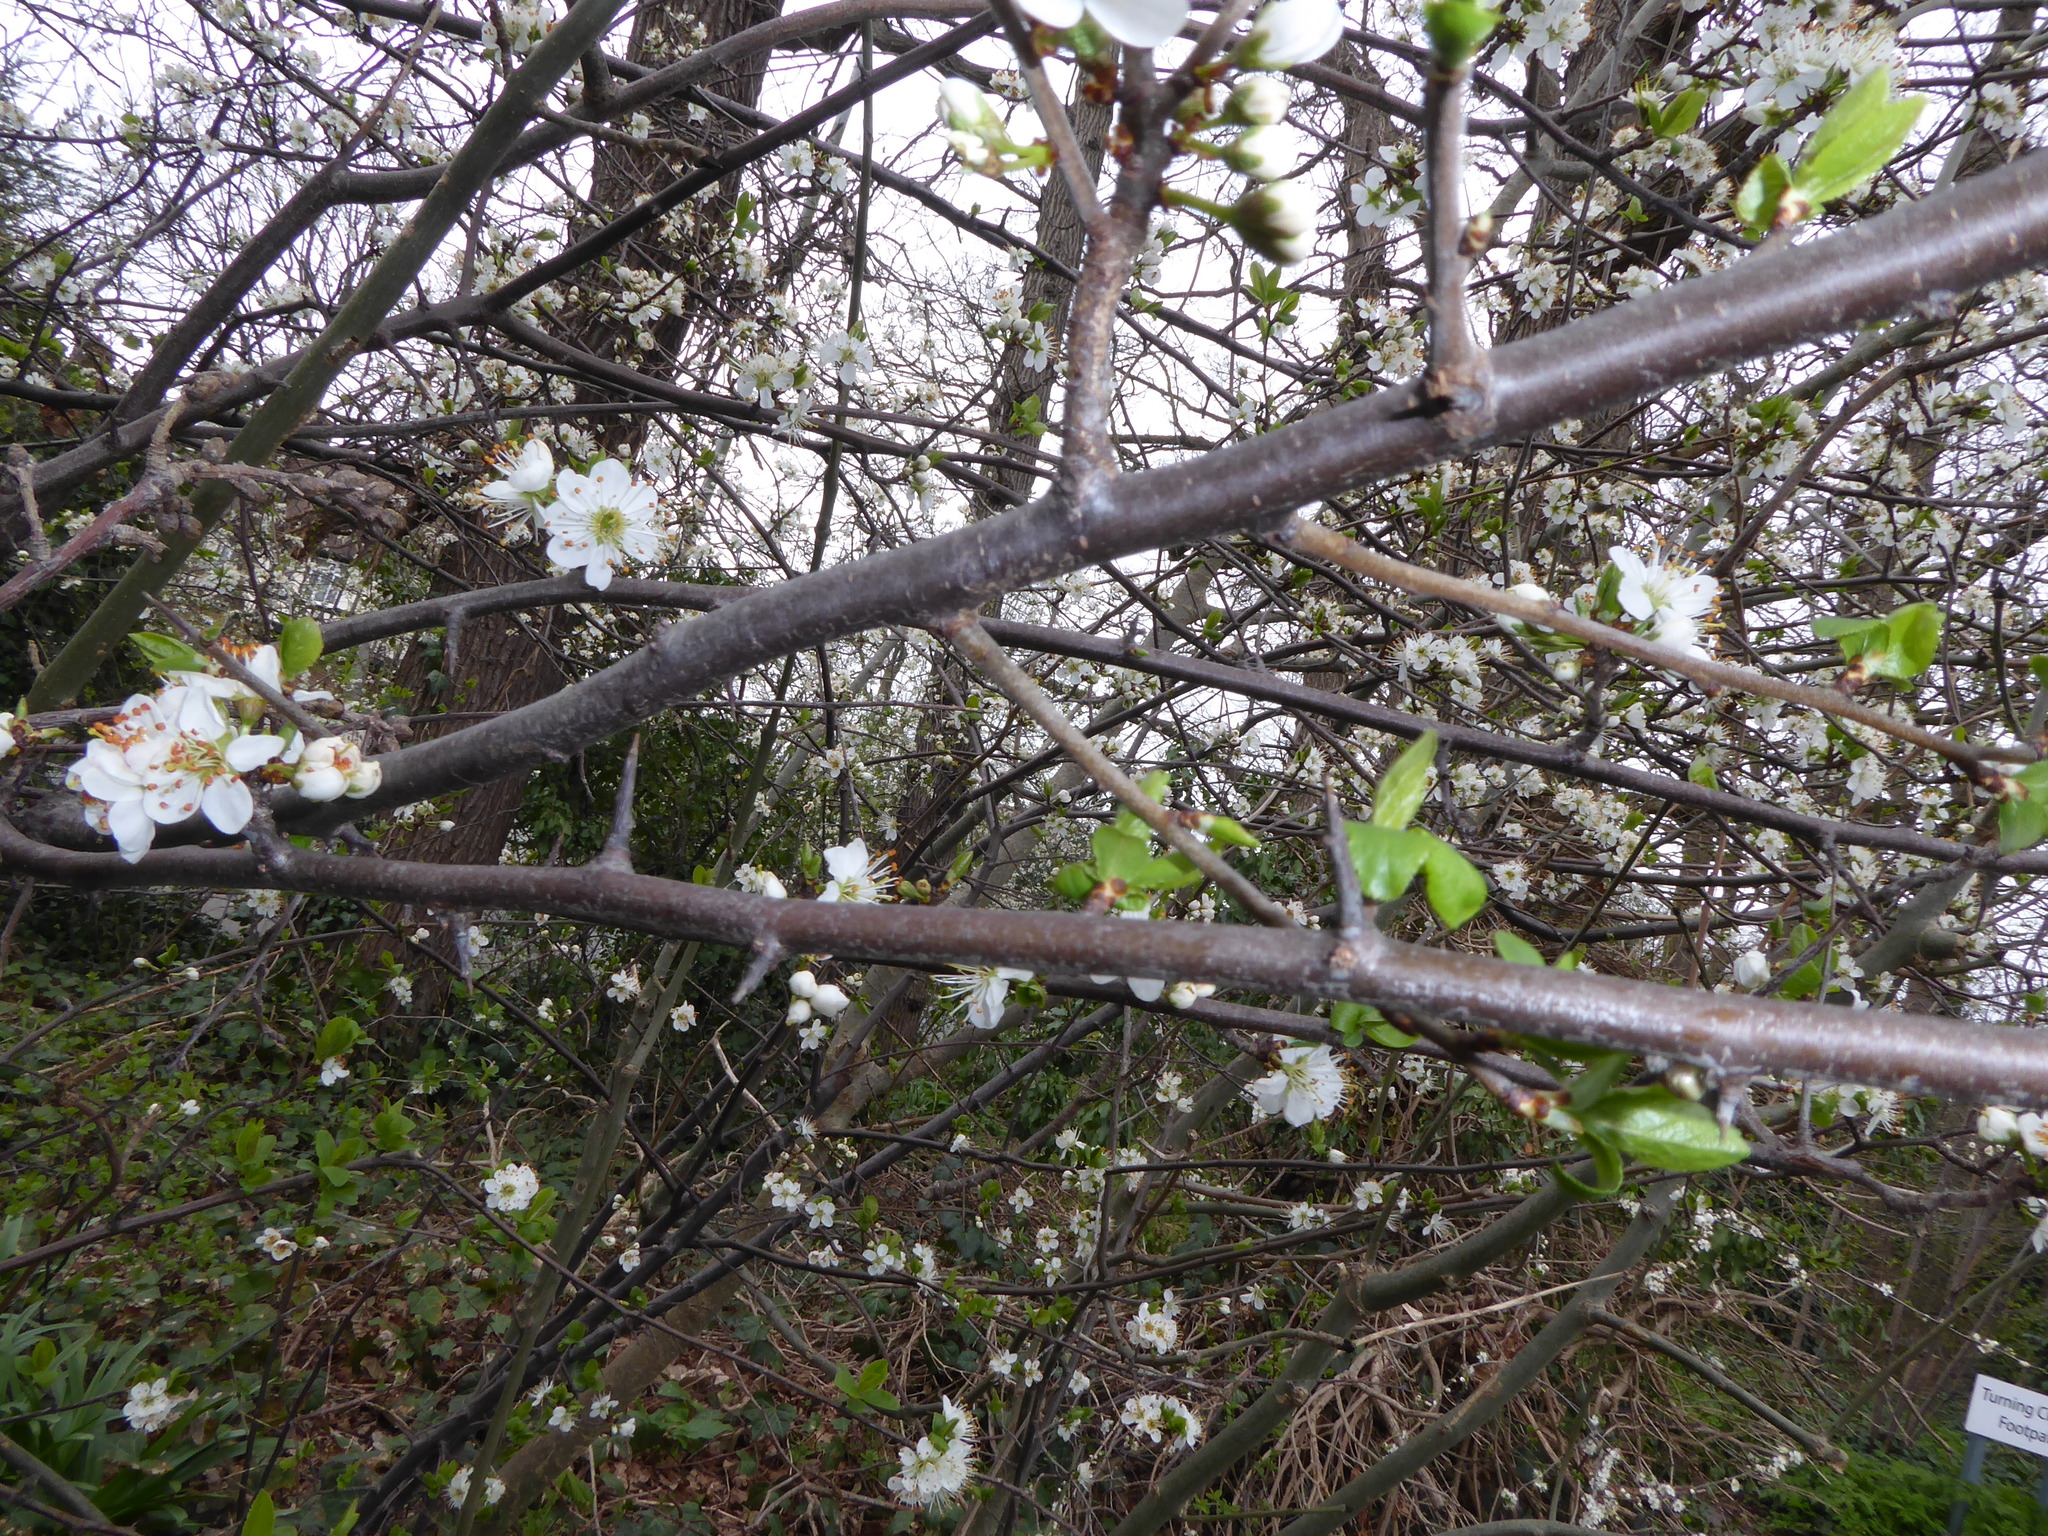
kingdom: Plantae
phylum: Tracheophyta
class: Magnoliopsida
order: Rosales
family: Rosaceae
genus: Prunus
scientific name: Prunus domestica
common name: Wild plum
